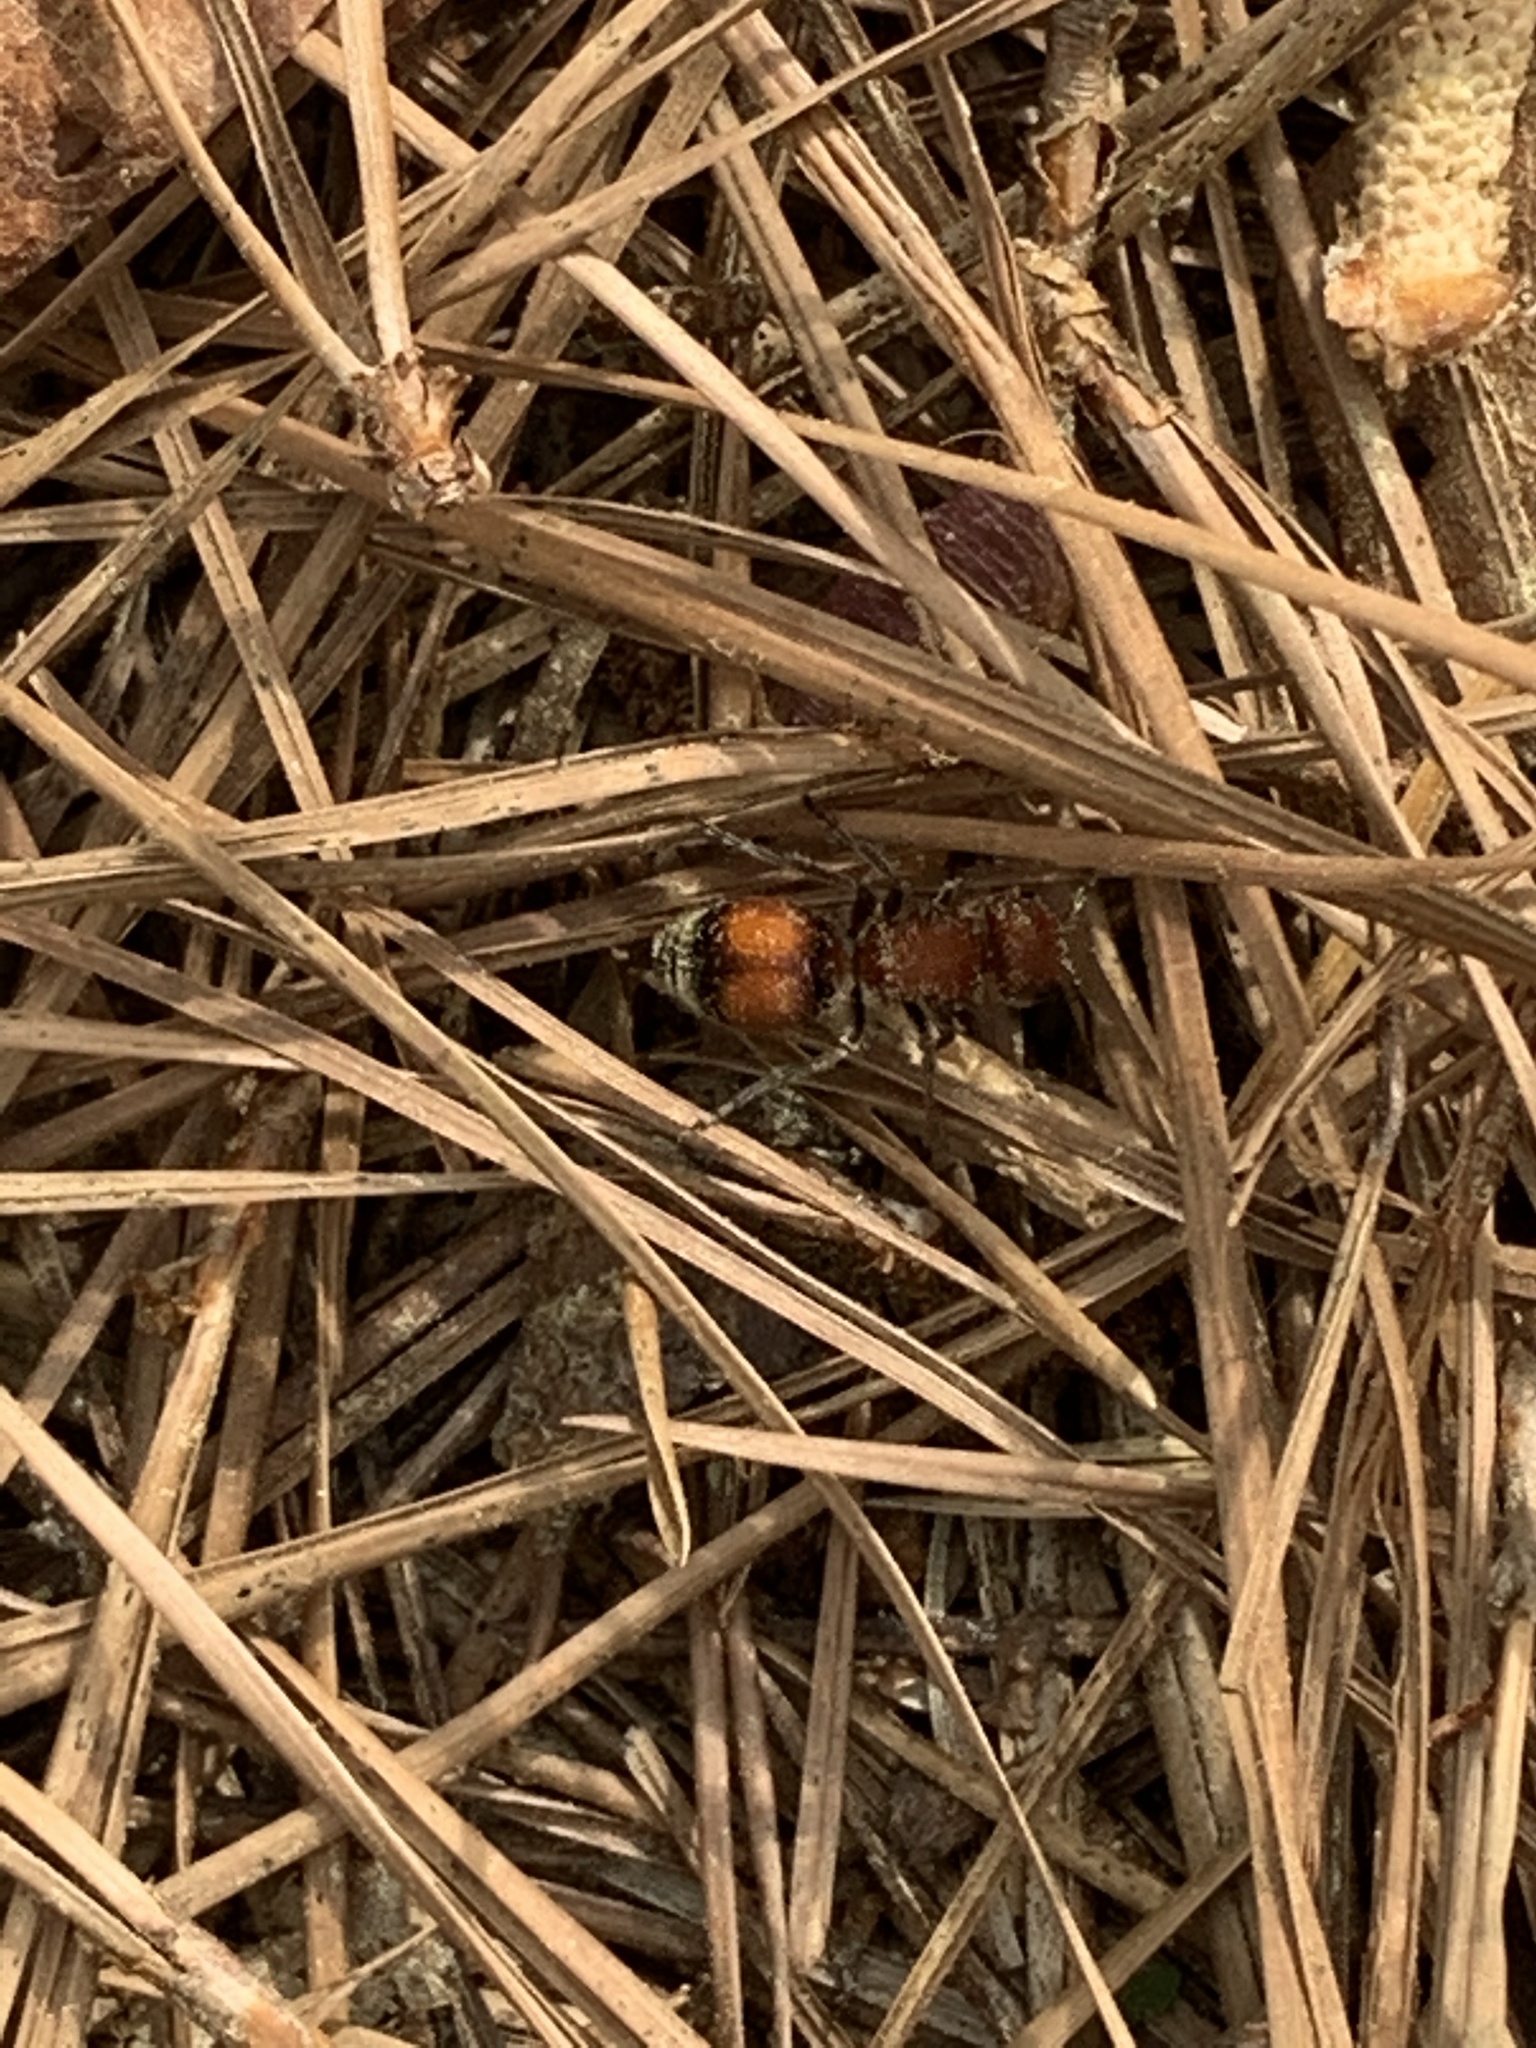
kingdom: Animalia
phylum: Arthropoda
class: Insecta
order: Hymenoptera
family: Mutillidae
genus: Pseudomethoca
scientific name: Pseudomethoca
